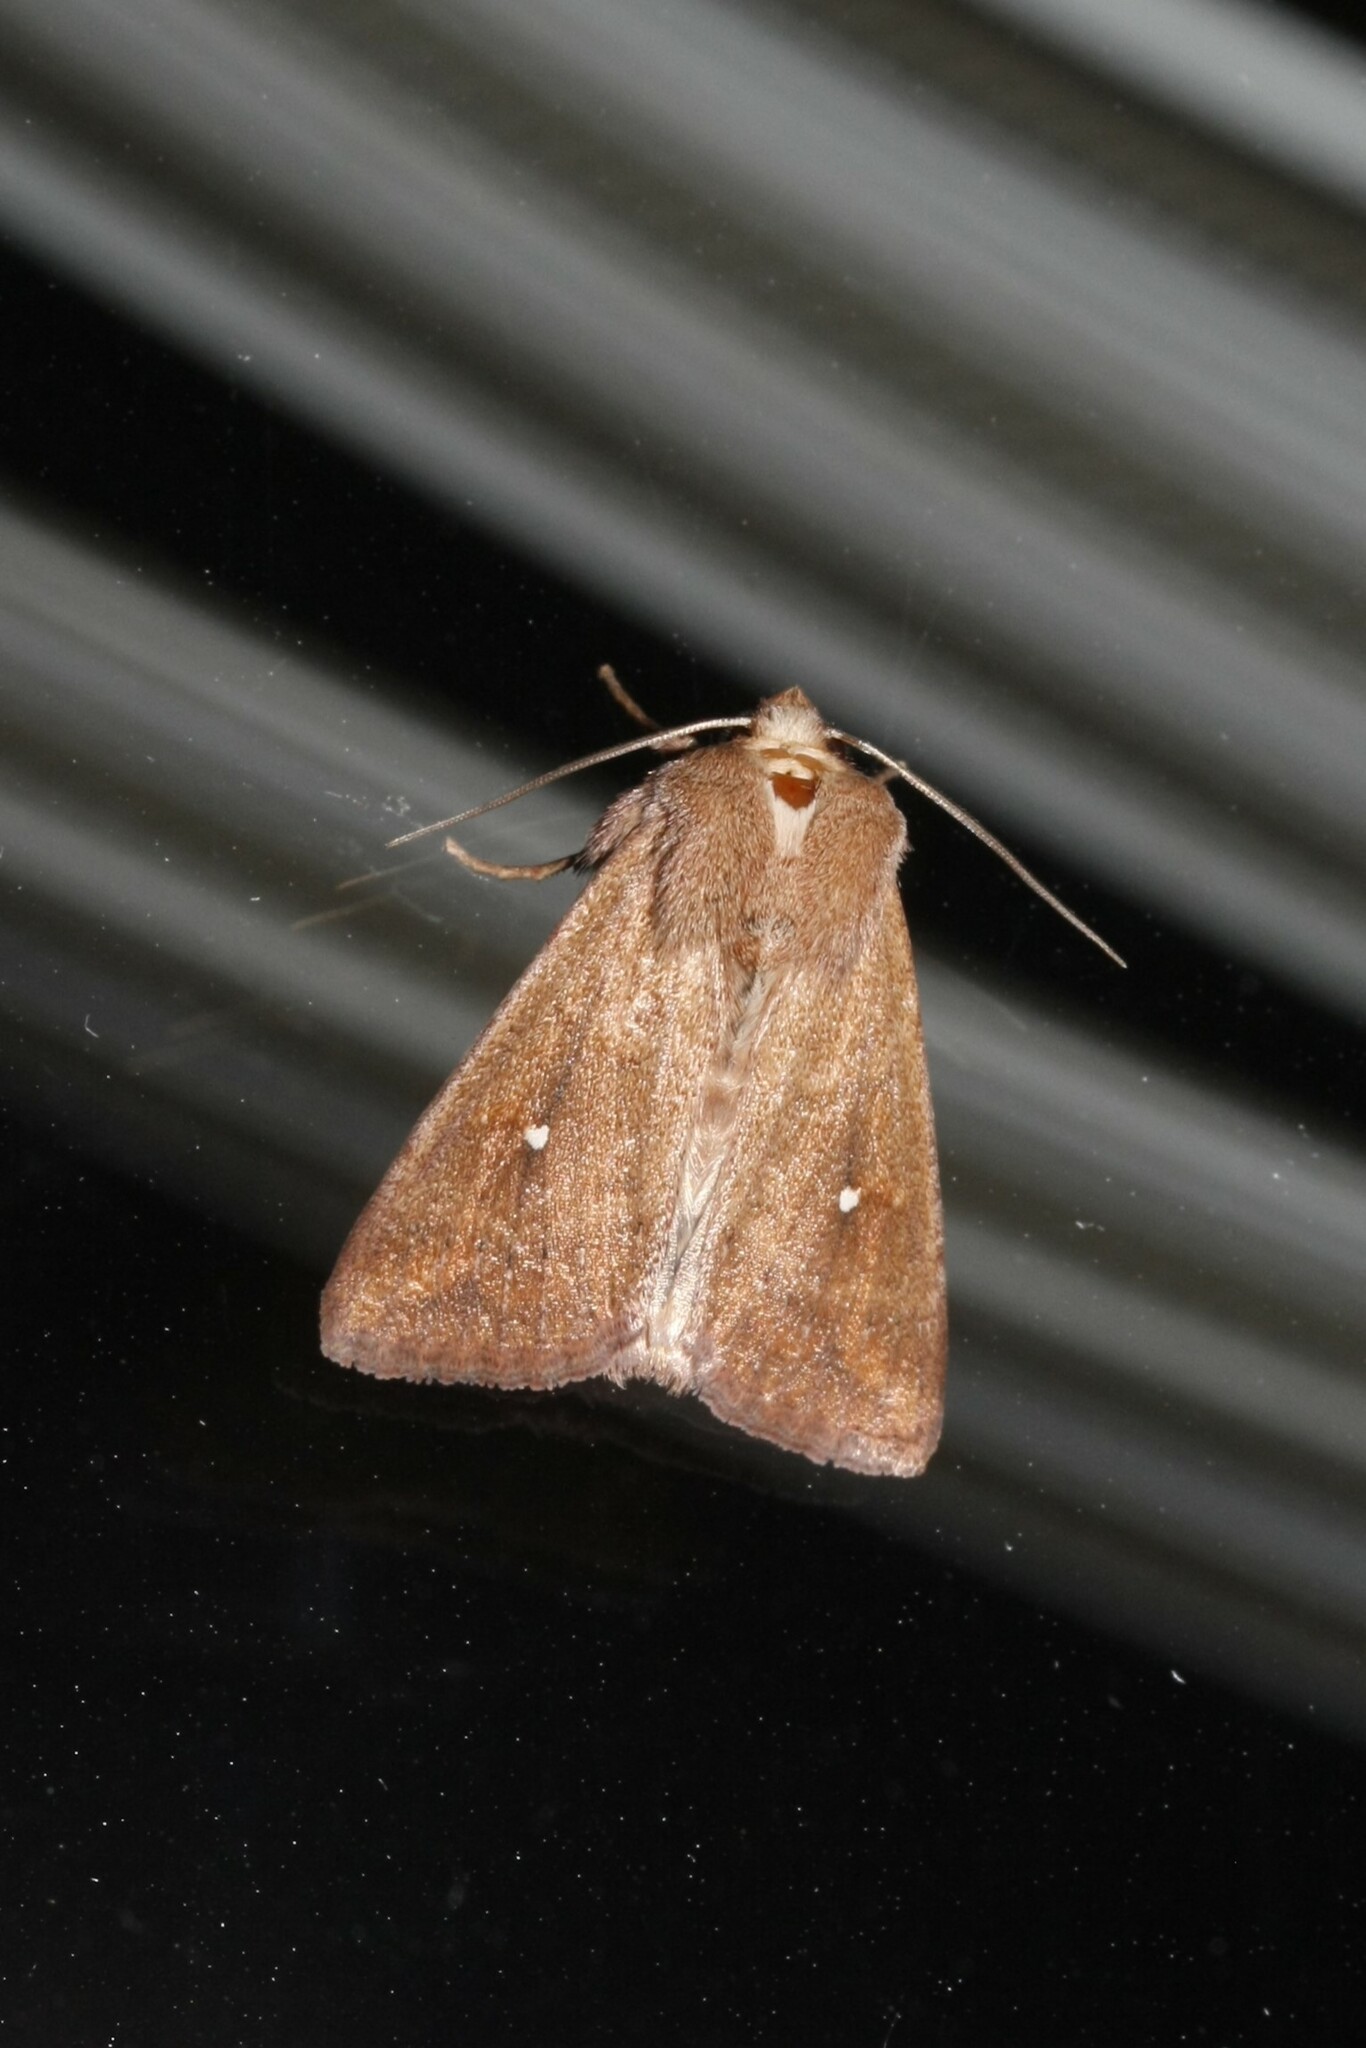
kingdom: Animalia
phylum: Arthropoda
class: Insecta
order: Lepidoptera
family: Noctuidae
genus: Mythimna
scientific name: Mythimna albipuncta
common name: White-point
